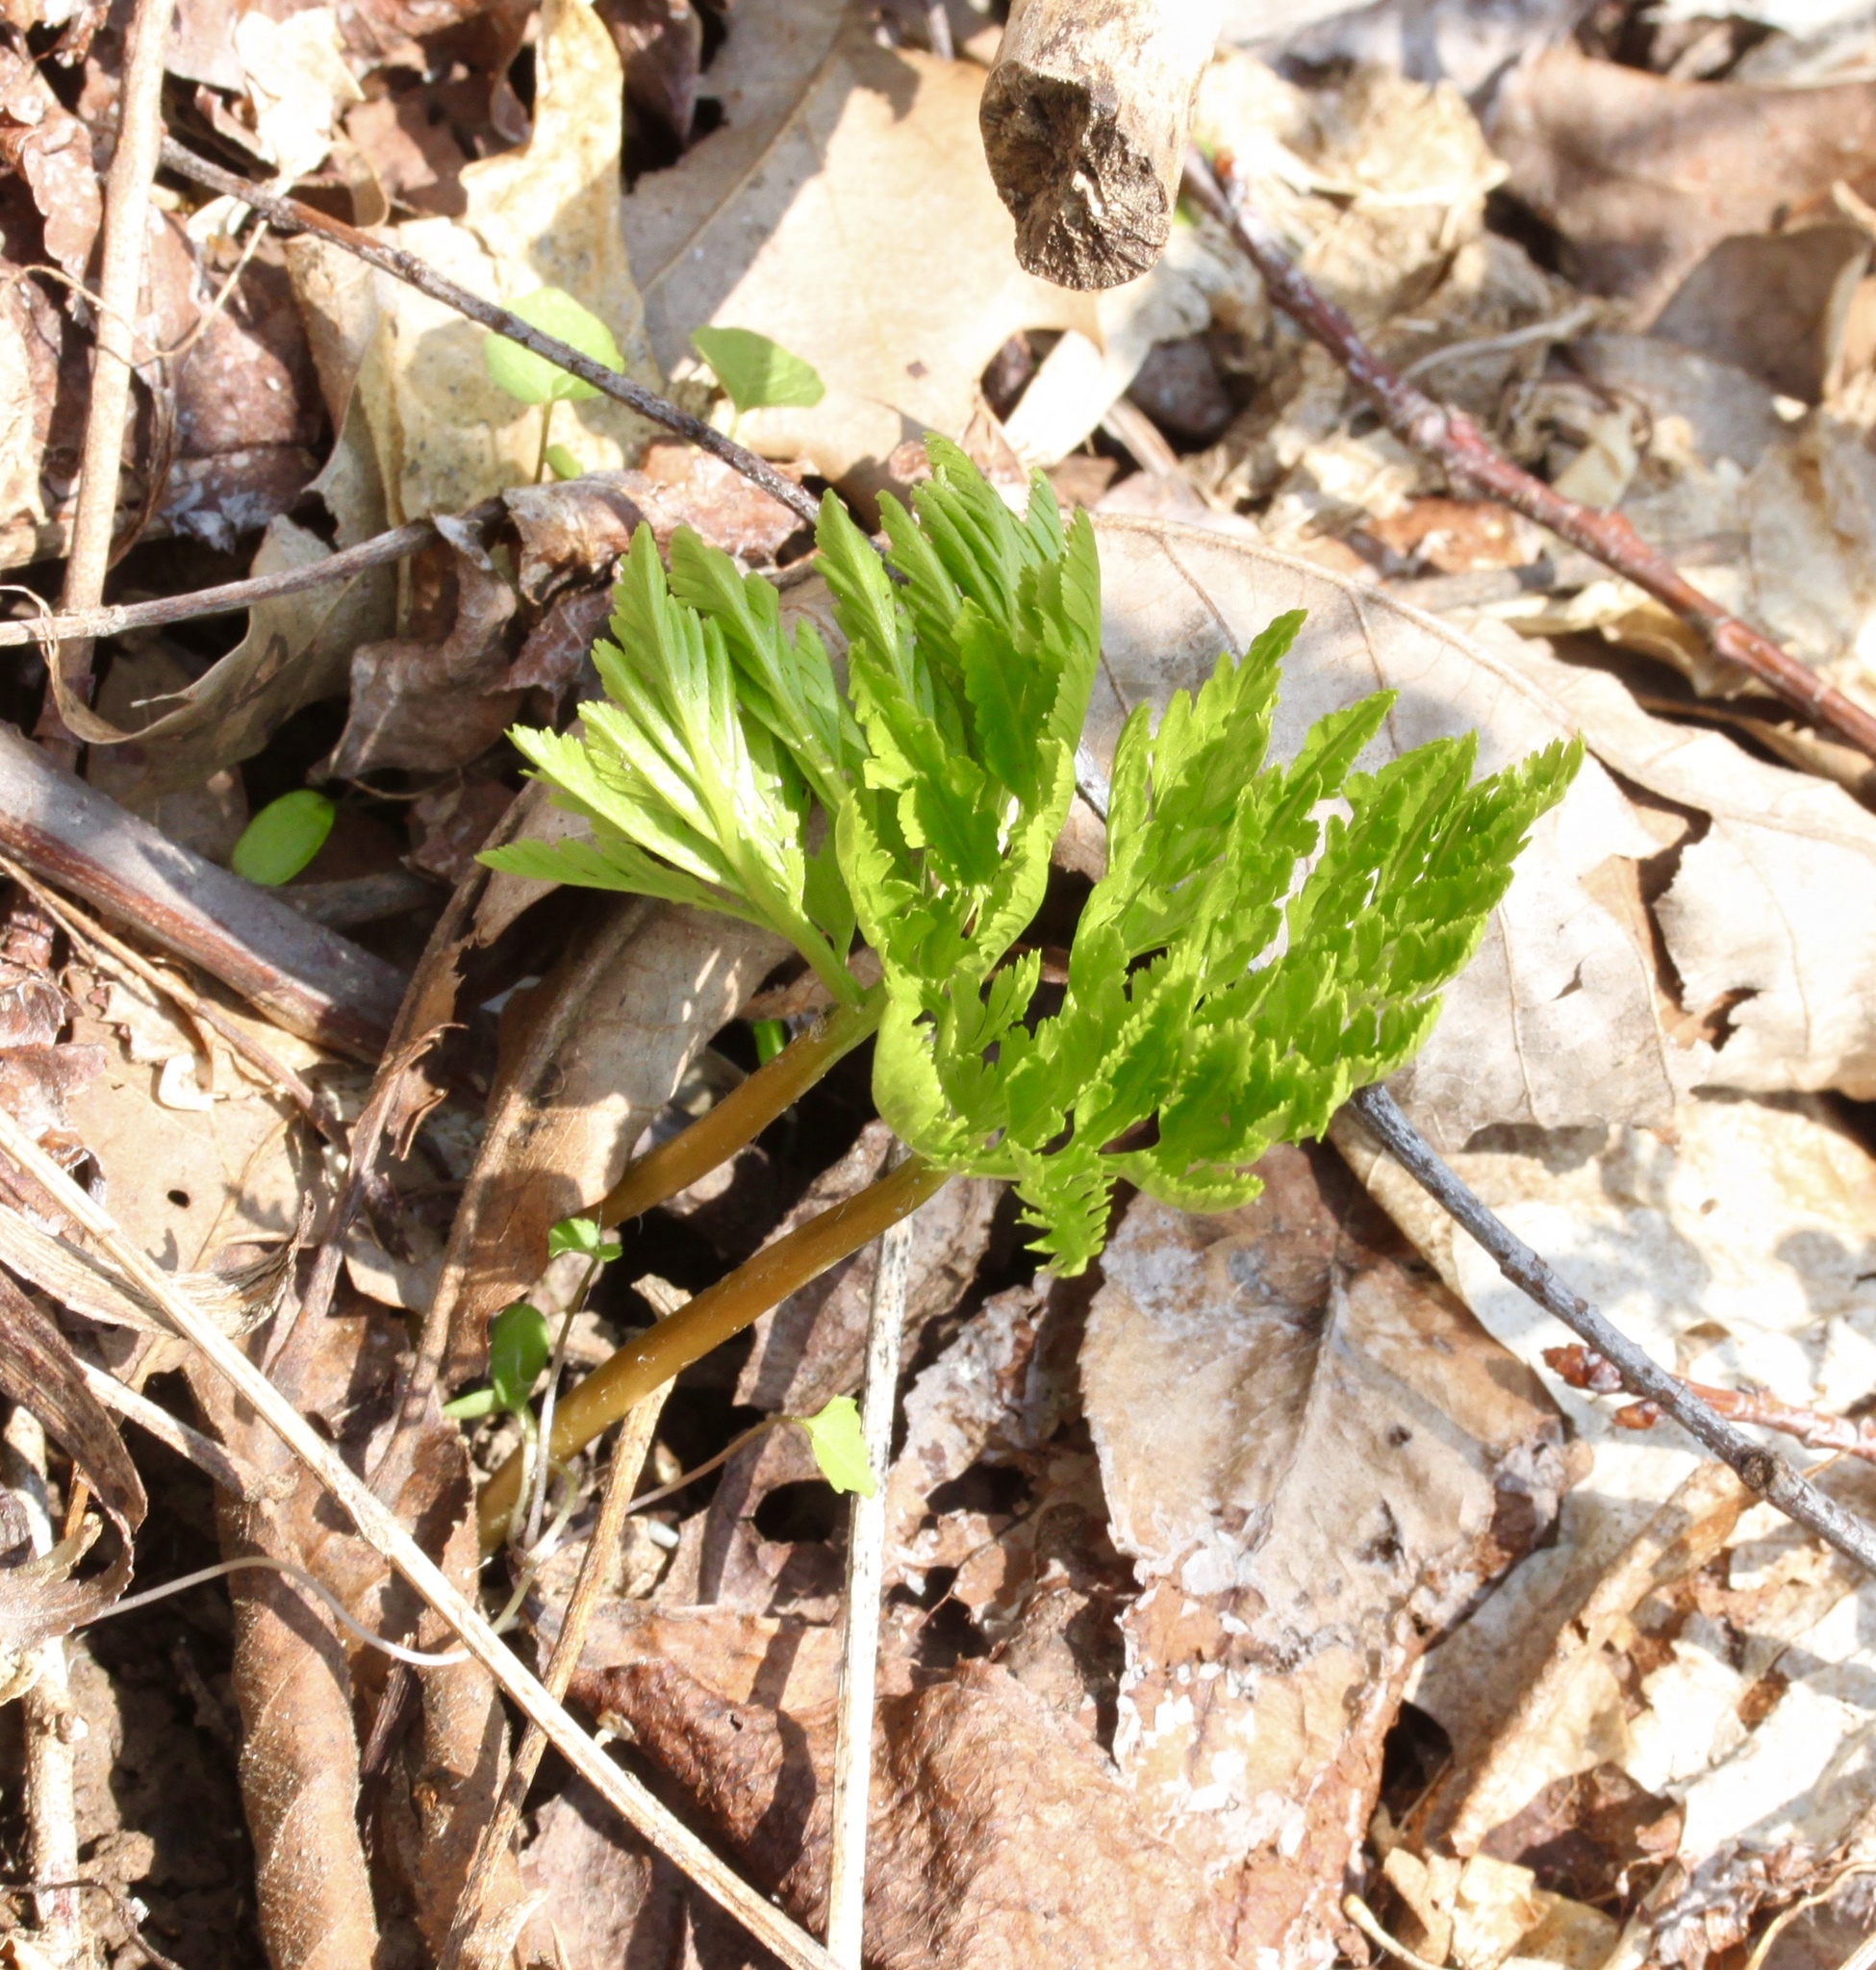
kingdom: Plantae
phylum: Tracheophyta
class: Polypodiopsida
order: Ophioglossales
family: Ophioglossaceae
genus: Botrypus
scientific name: Botrypus virginianus
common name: Common grapefern
